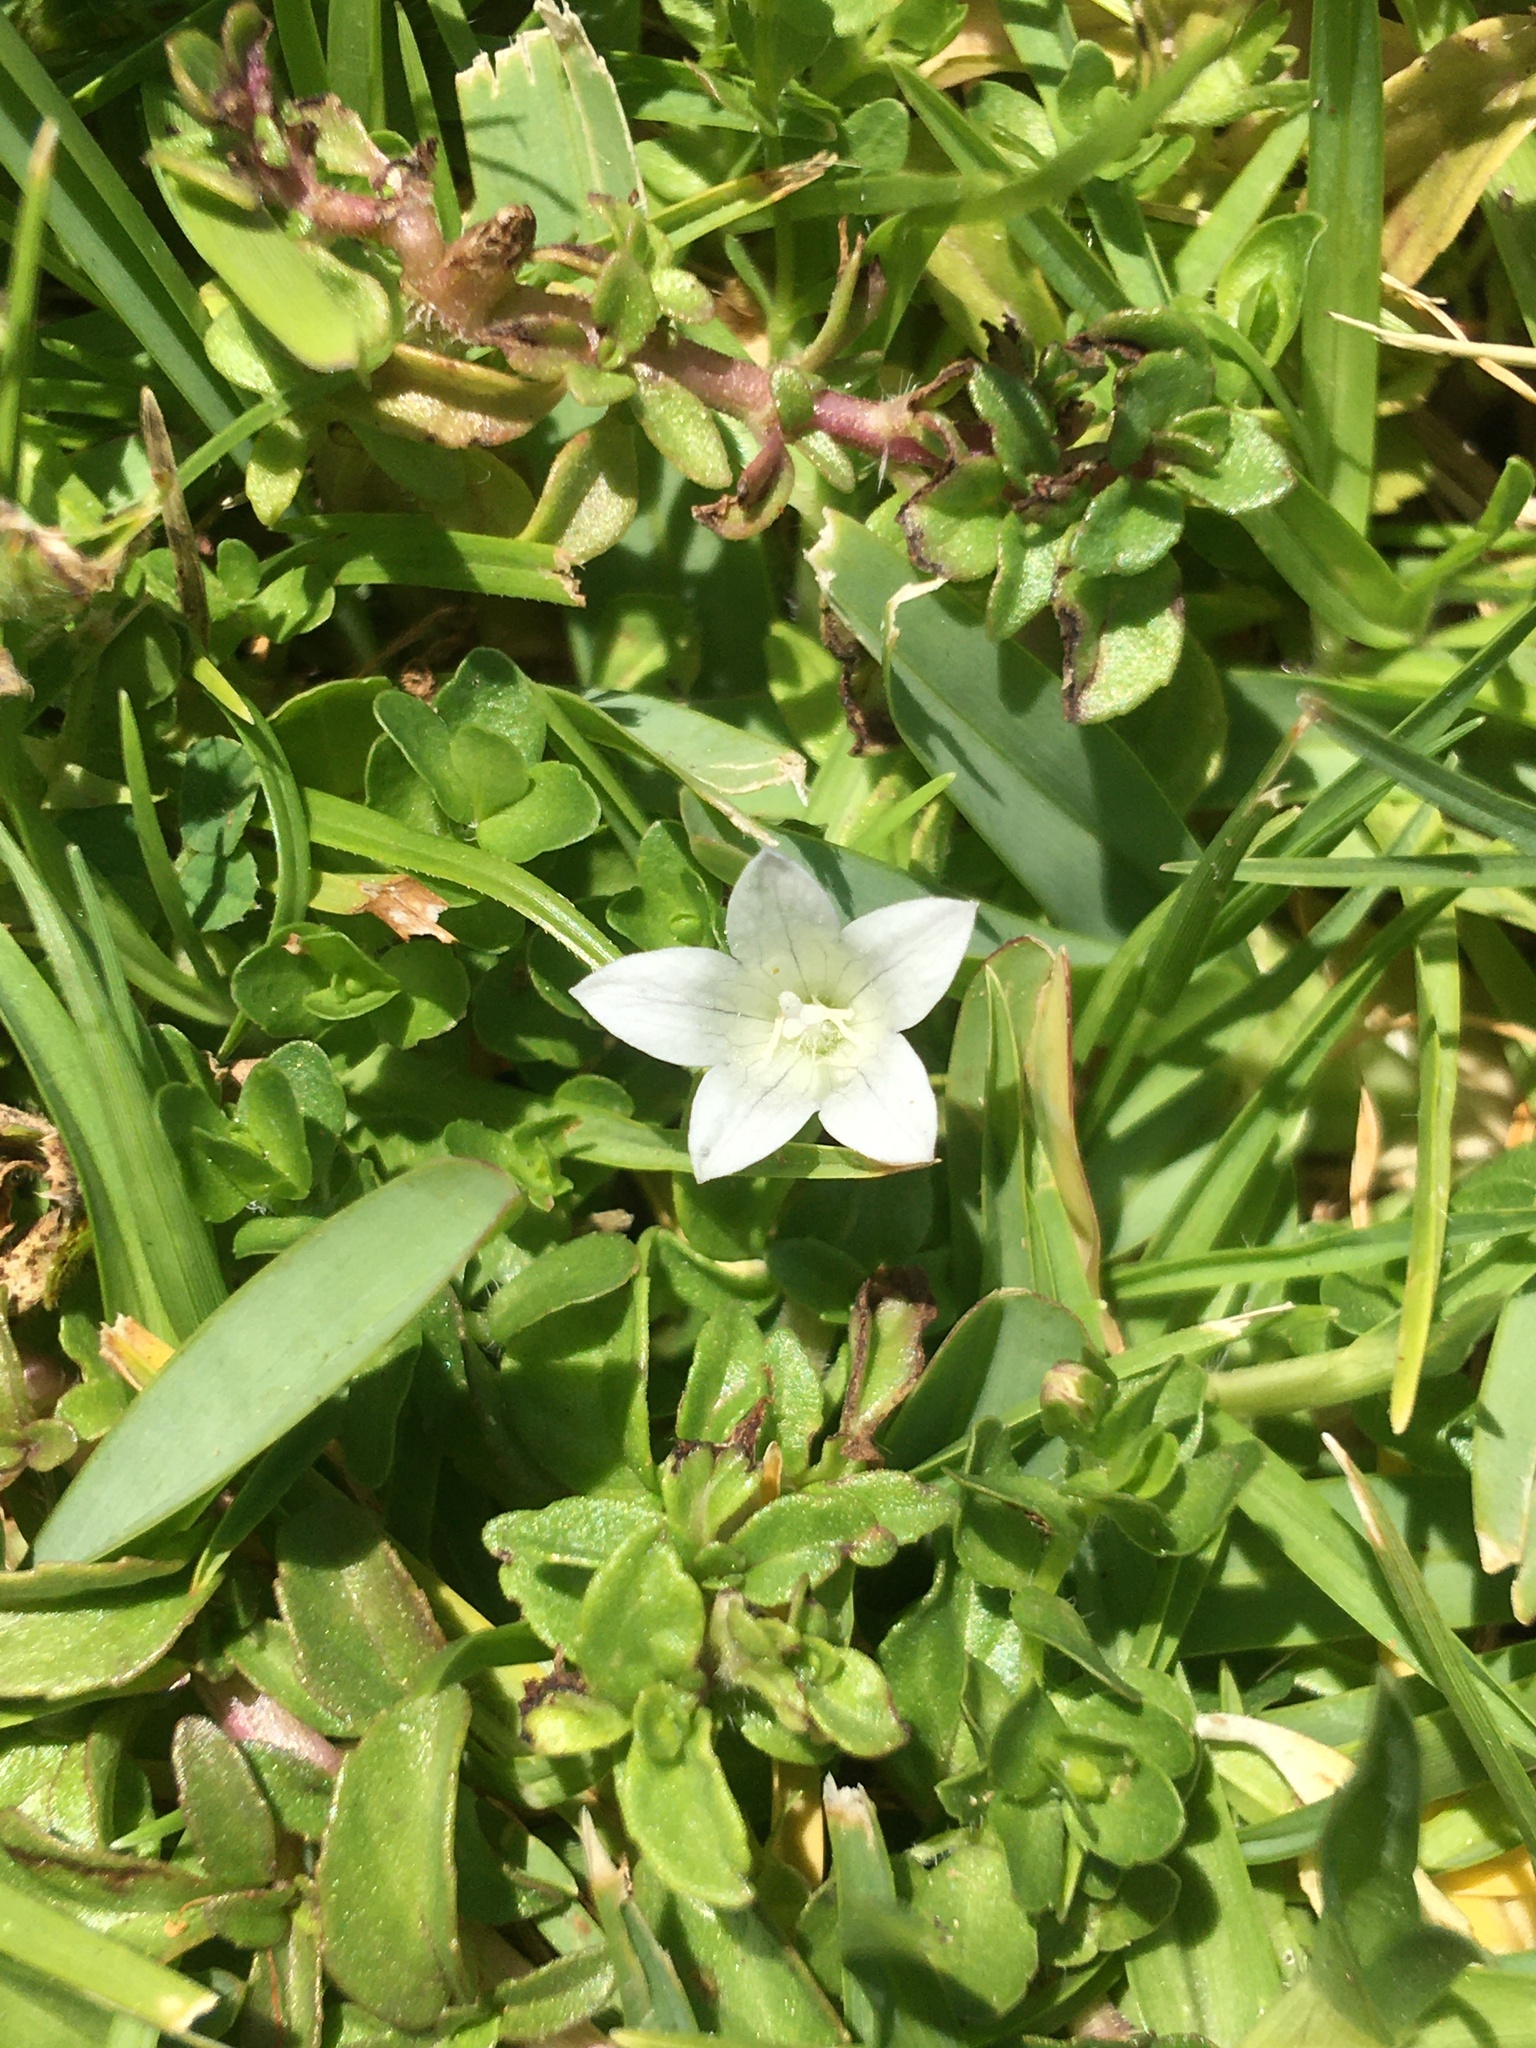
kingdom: Plantae
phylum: Tracheophyta
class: Magnoliopsida
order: Asterales
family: Campanulaceae
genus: Wahlenbergia
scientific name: Wahlenbergia procumbens
